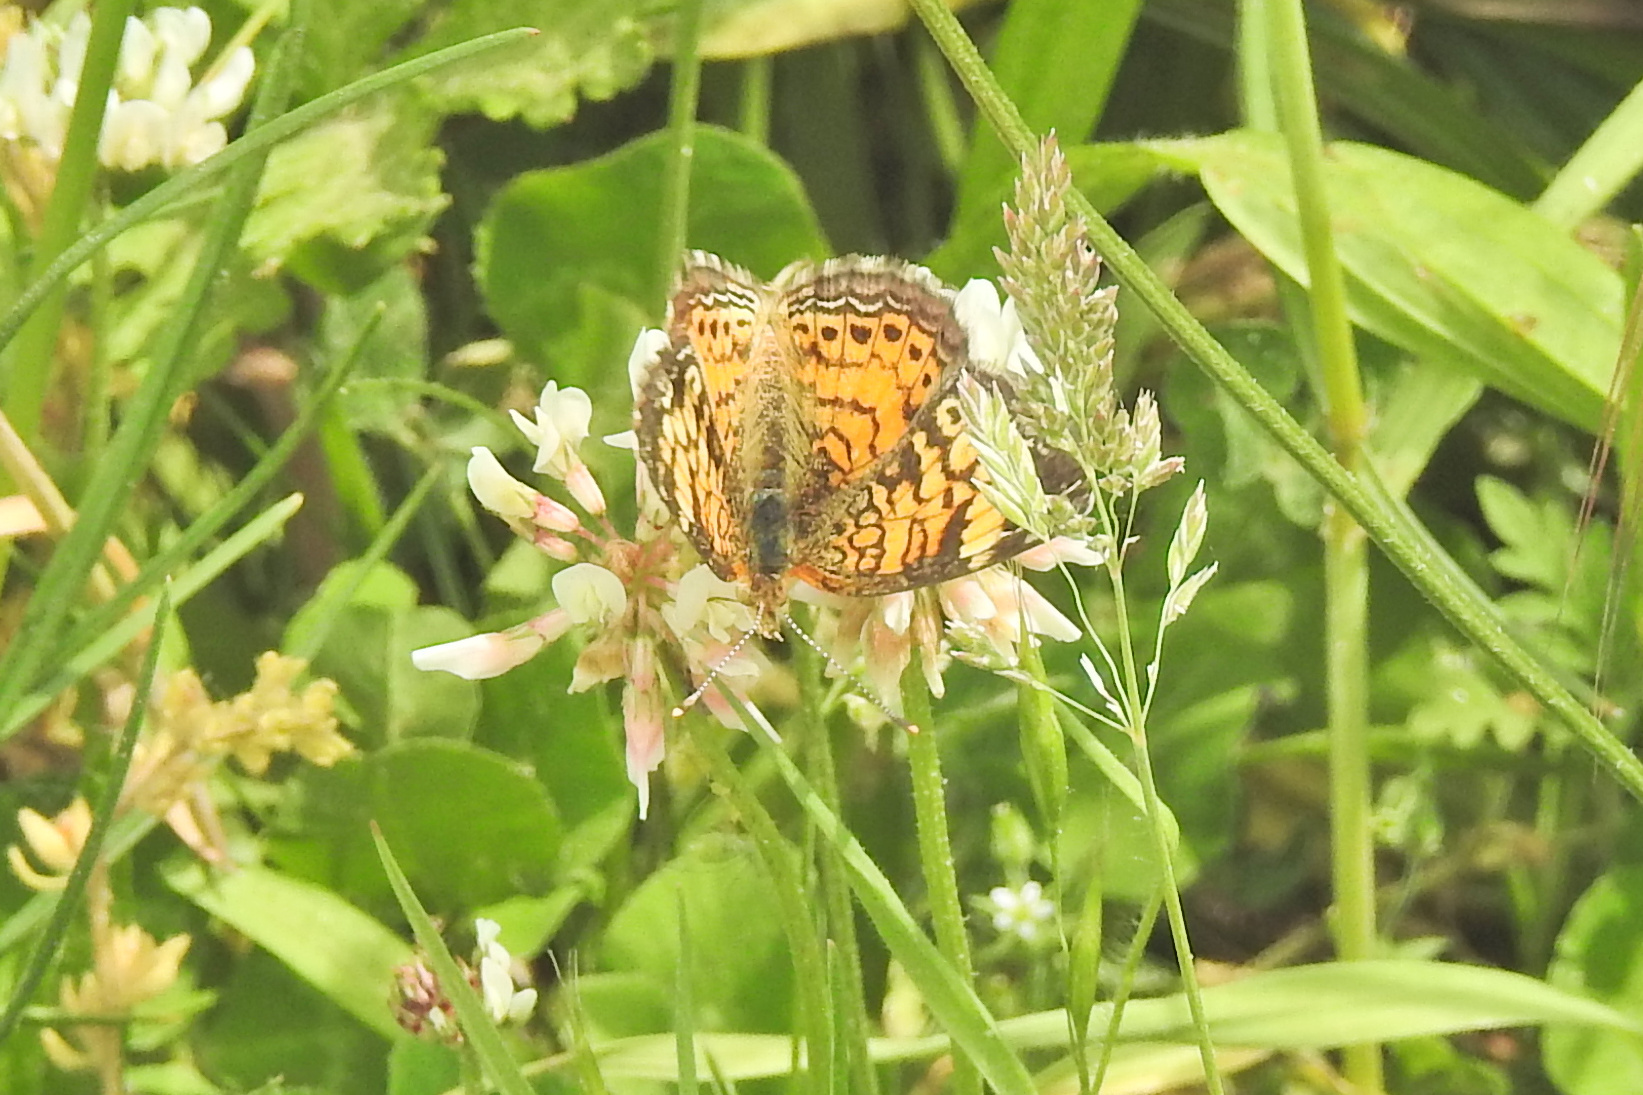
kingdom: Animalia
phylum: Arthropoda
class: Insecta
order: Lepidoptera
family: Nymphalidae
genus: Phyciodes
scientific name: Phyciodes tharos
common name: Pearl crescent
